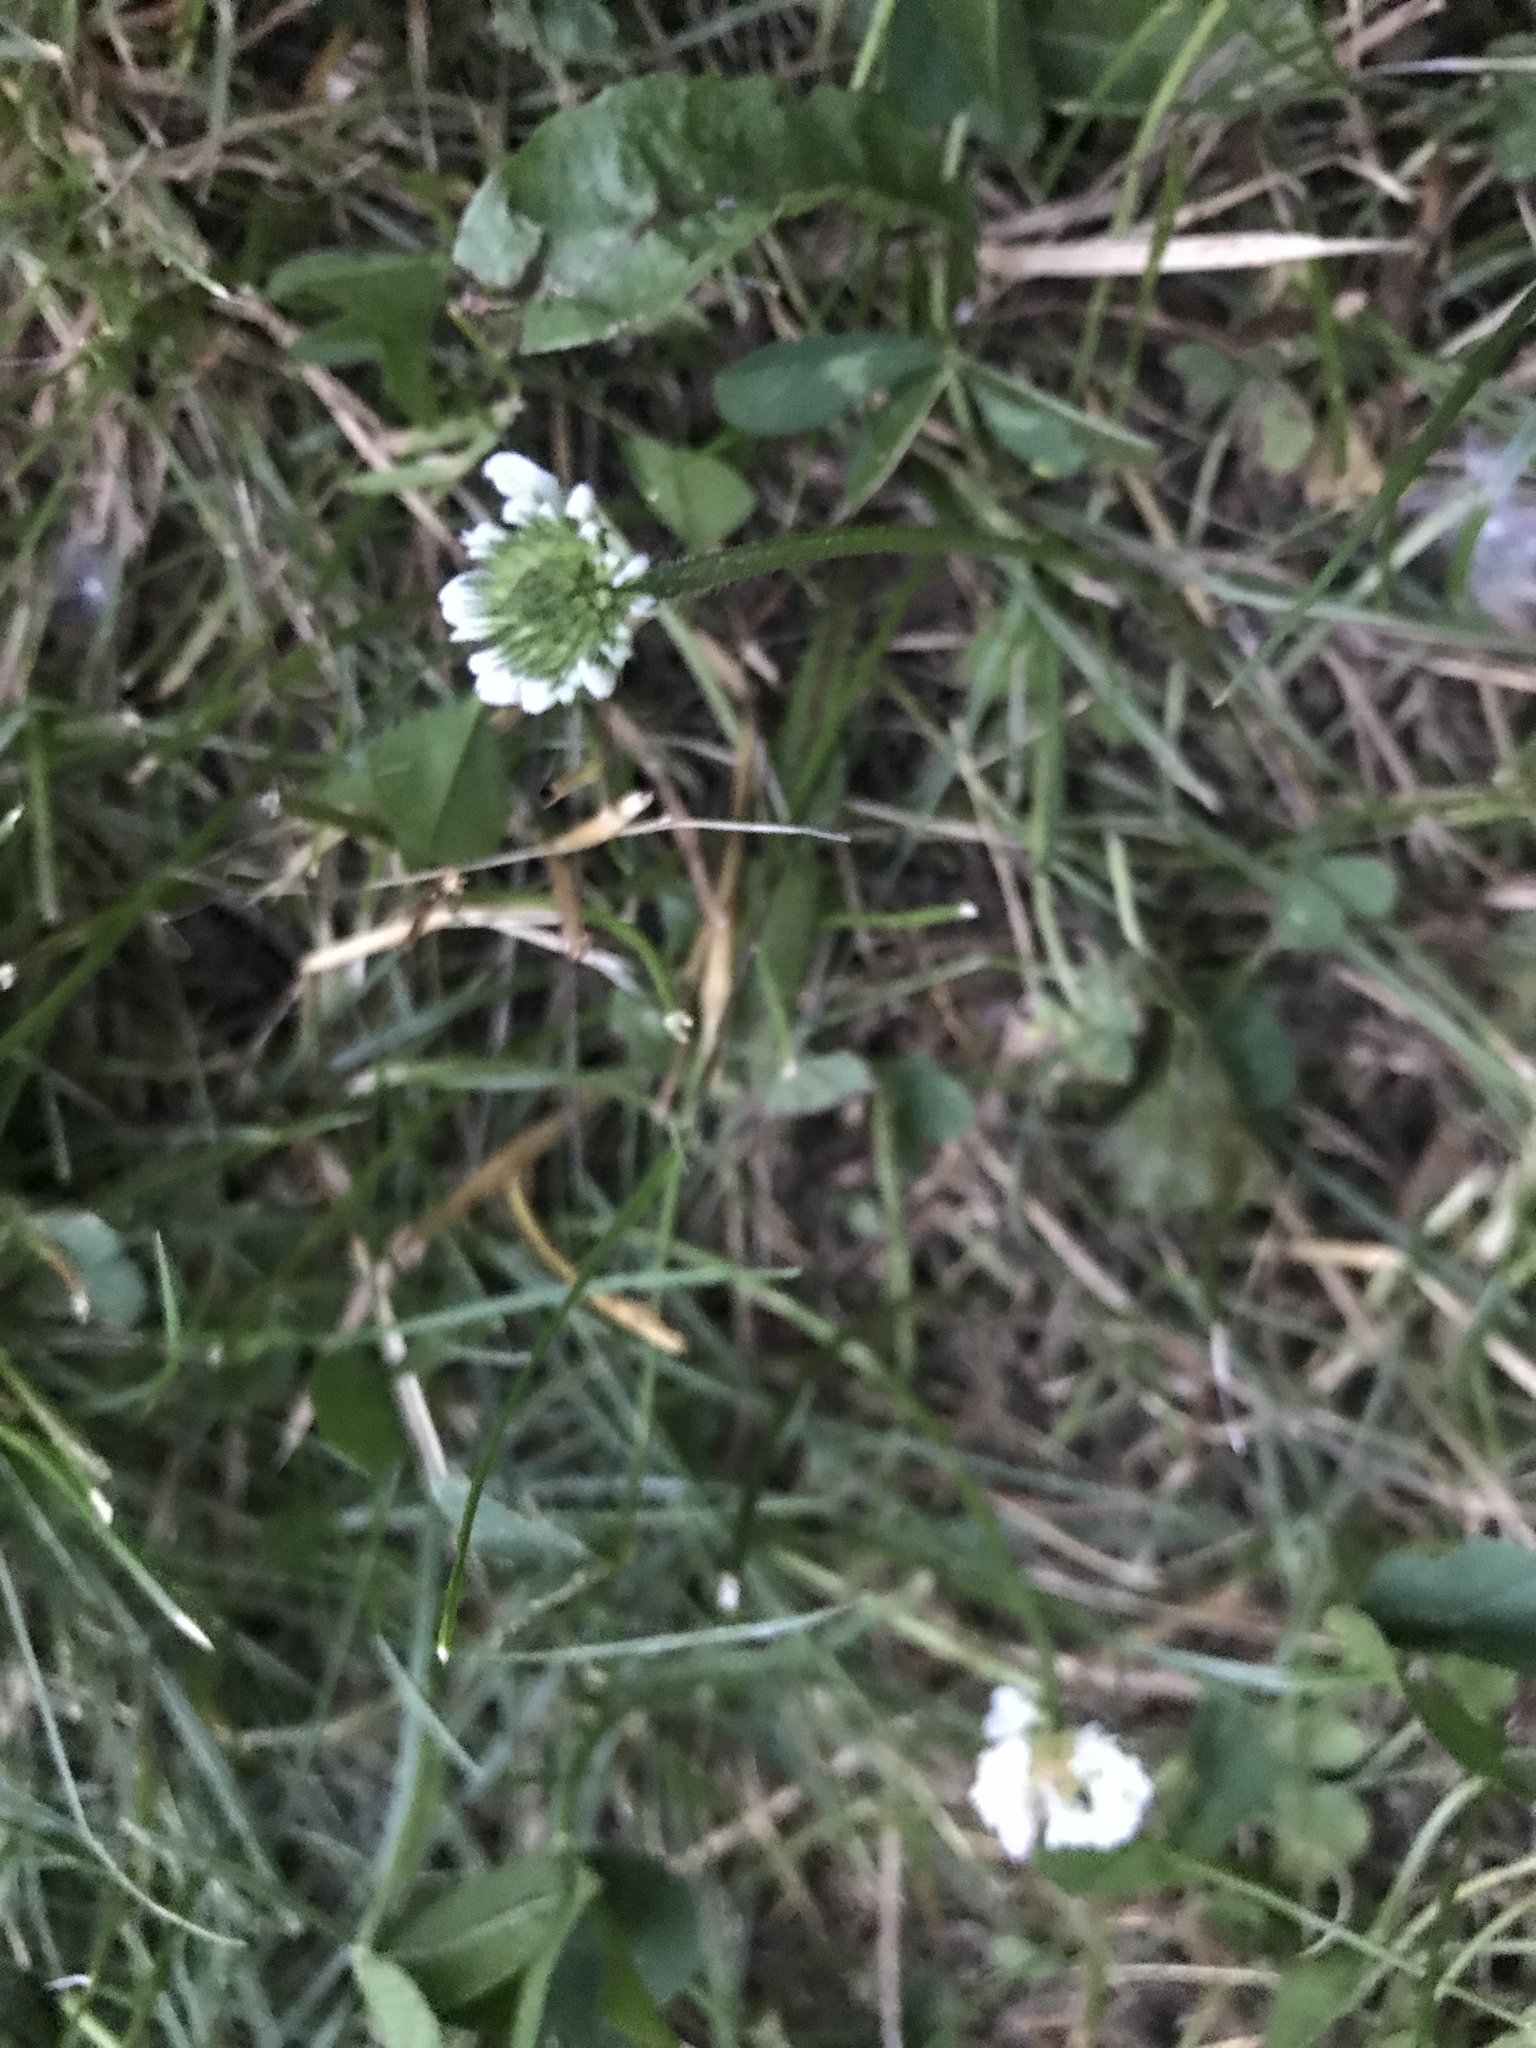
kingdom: Plantae
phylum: Tracheophyta
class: Magnoliopsida
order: Fabales
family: Fabaceae
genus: Trifolium
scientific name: Trifolium repens
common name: White clover
